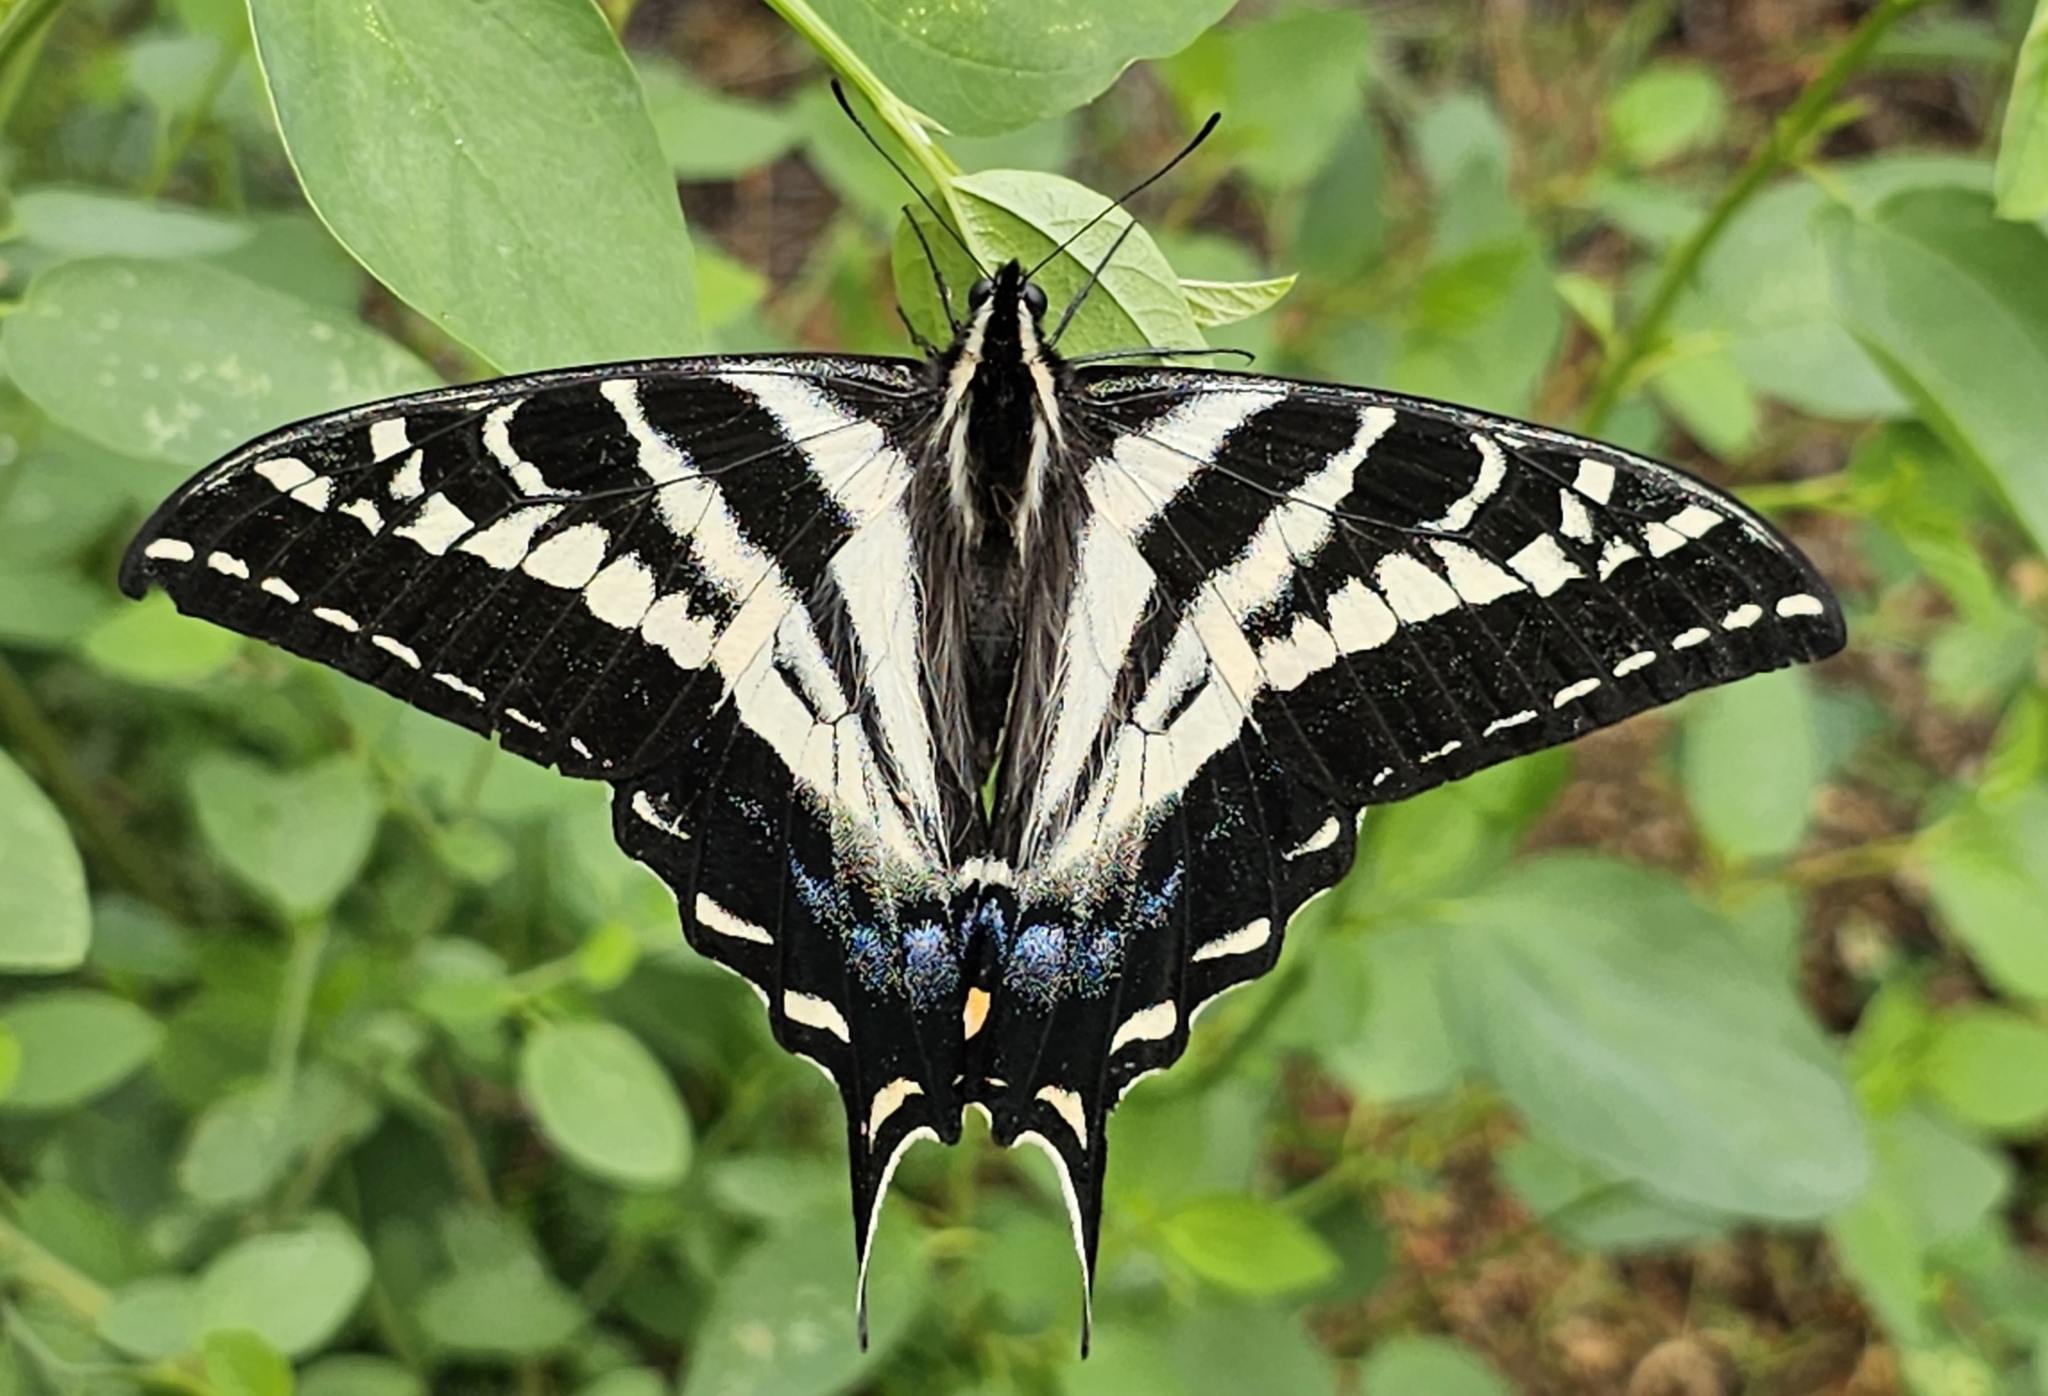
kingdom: Animalia
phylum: Arthropoda
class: Insecta
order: Lepidoptera
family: Papilionidae
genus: Papilio
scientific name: Papilio eurymedon
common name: Pale tiger swallowtail
